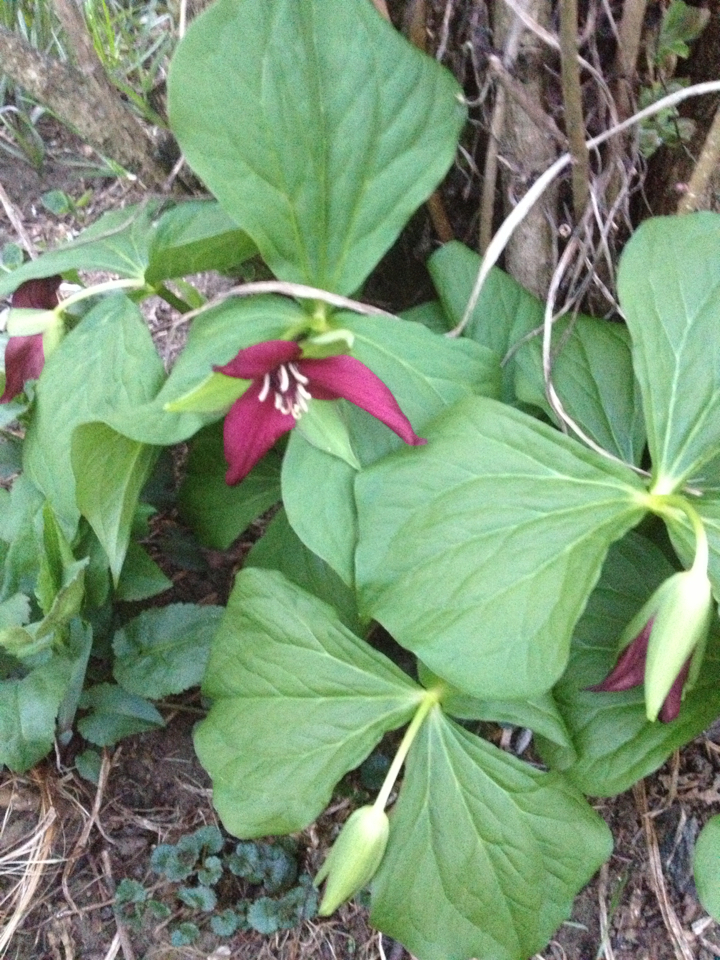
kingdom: Plantae
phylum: Tracheophyta
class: Liliopsida
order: Liliales
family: Melanthiaceae
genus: Trillium
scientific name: Trillium erectum
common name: Purple trillium
